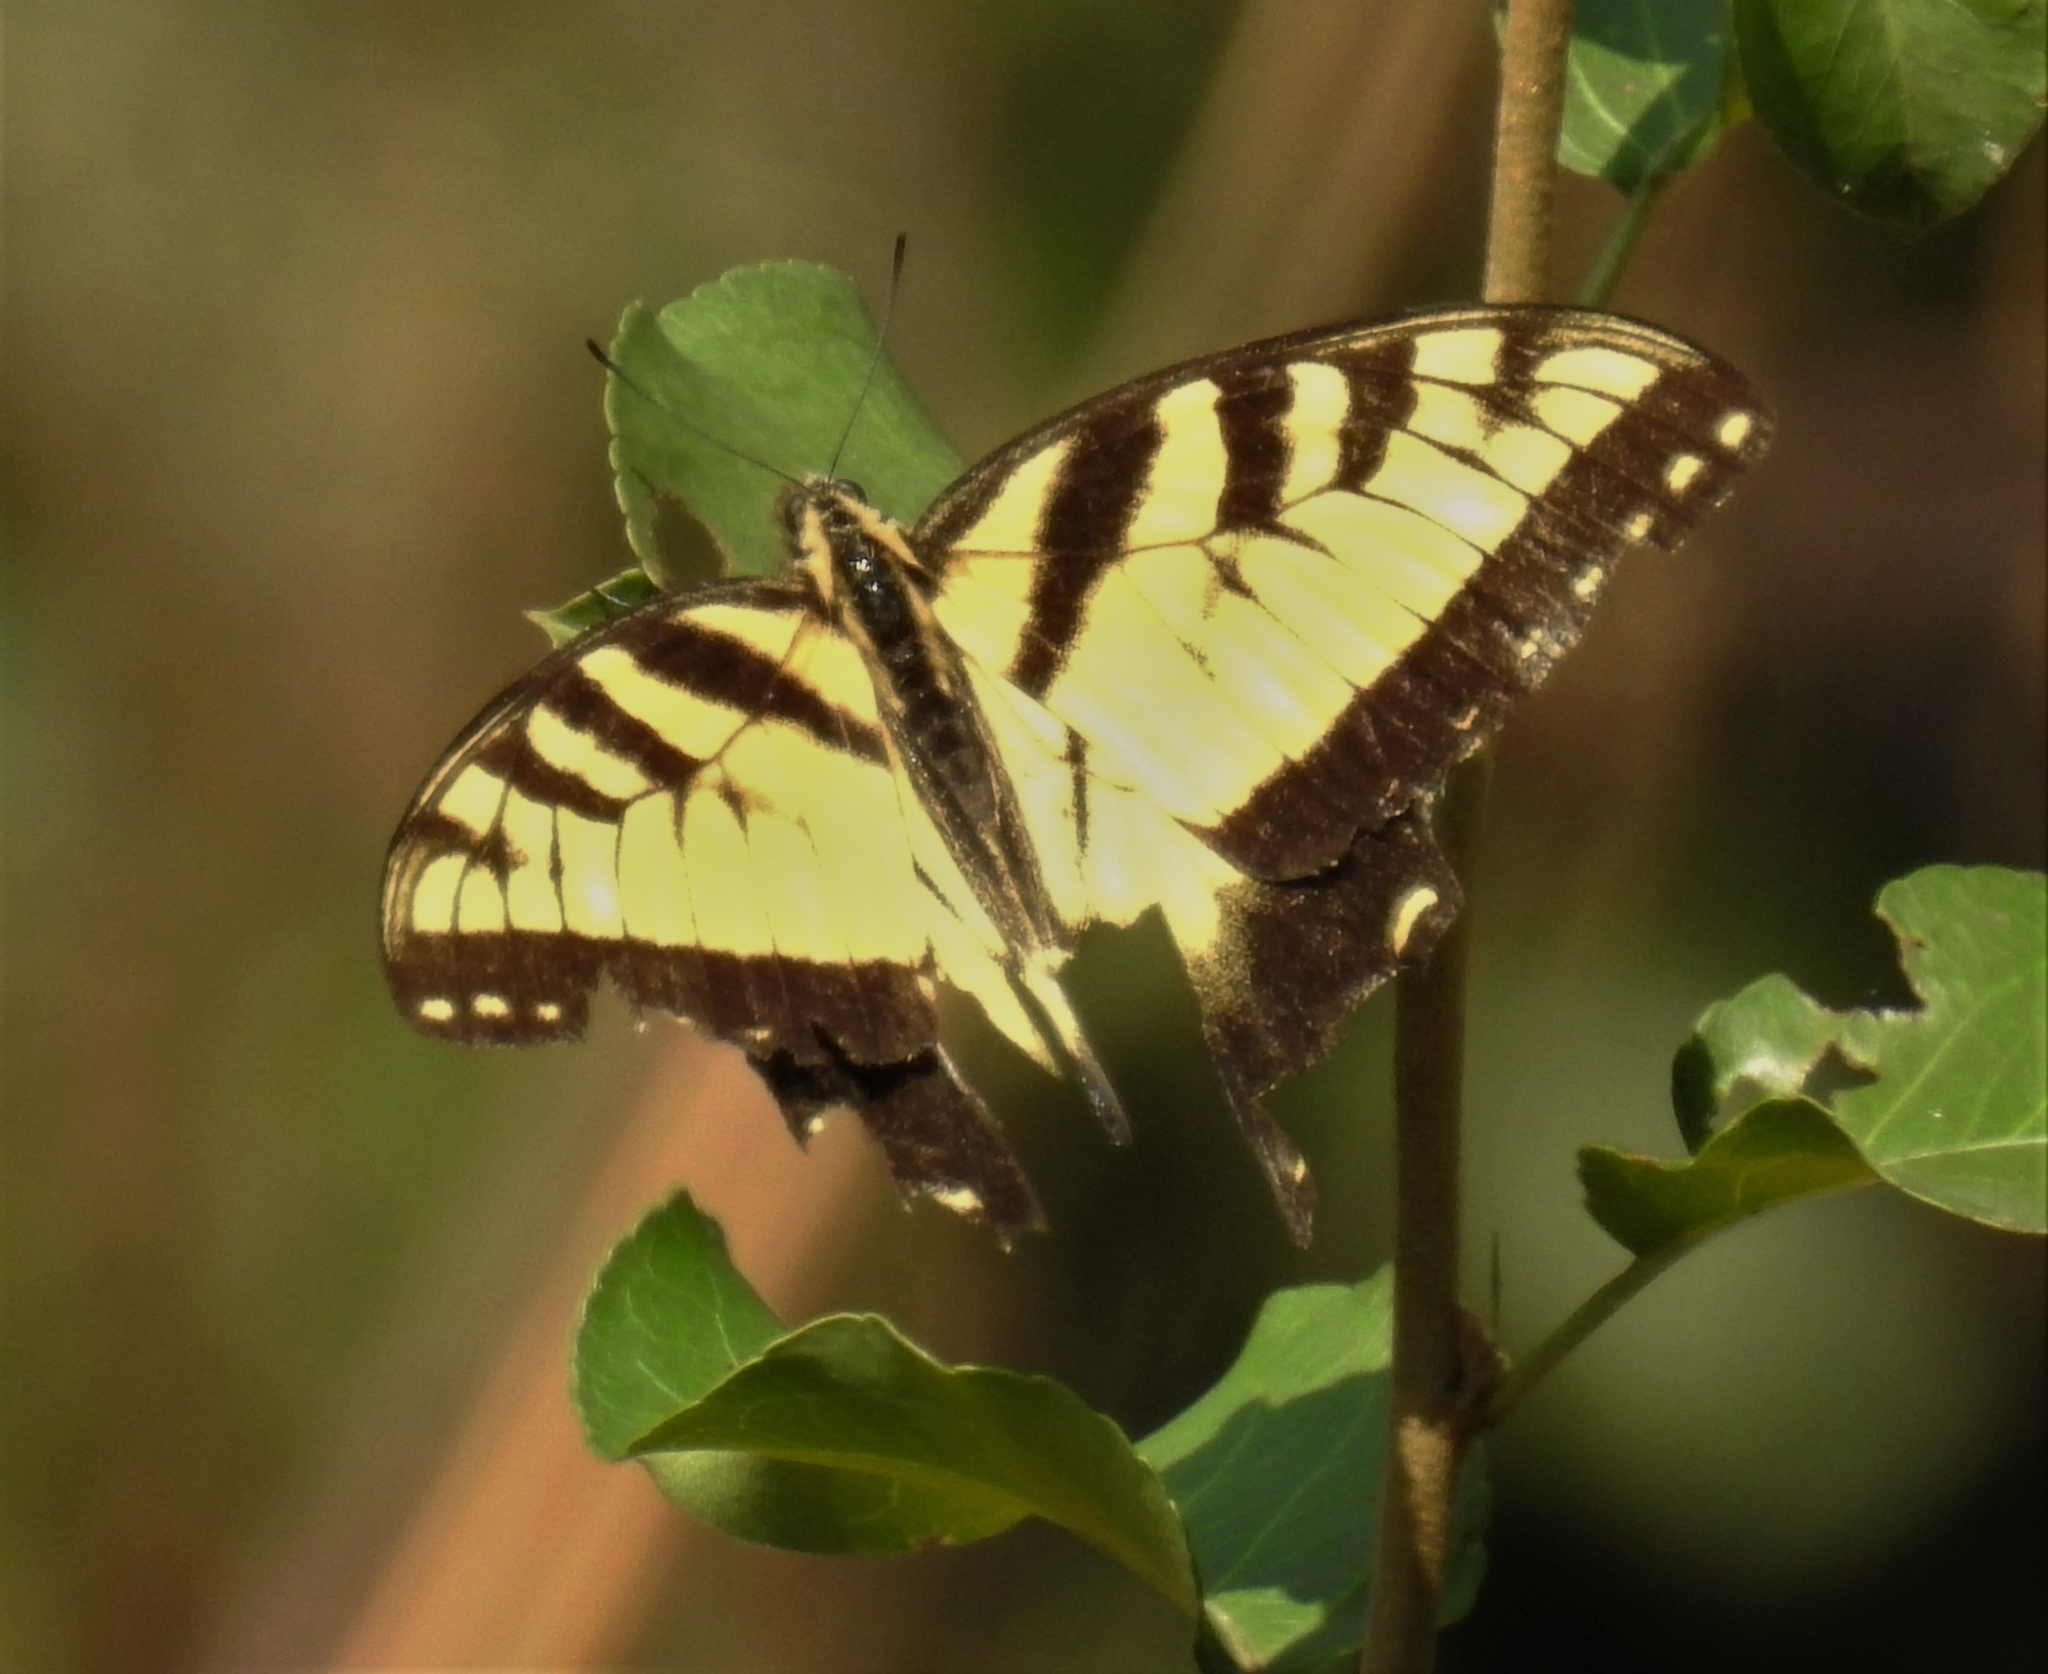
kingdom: Animalia
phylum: Arthropoda
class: Insecta
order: Lepidoptera
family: Papilionidae
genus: Papilio
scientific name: Papilio glaucus
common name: Tiger swallowtail
